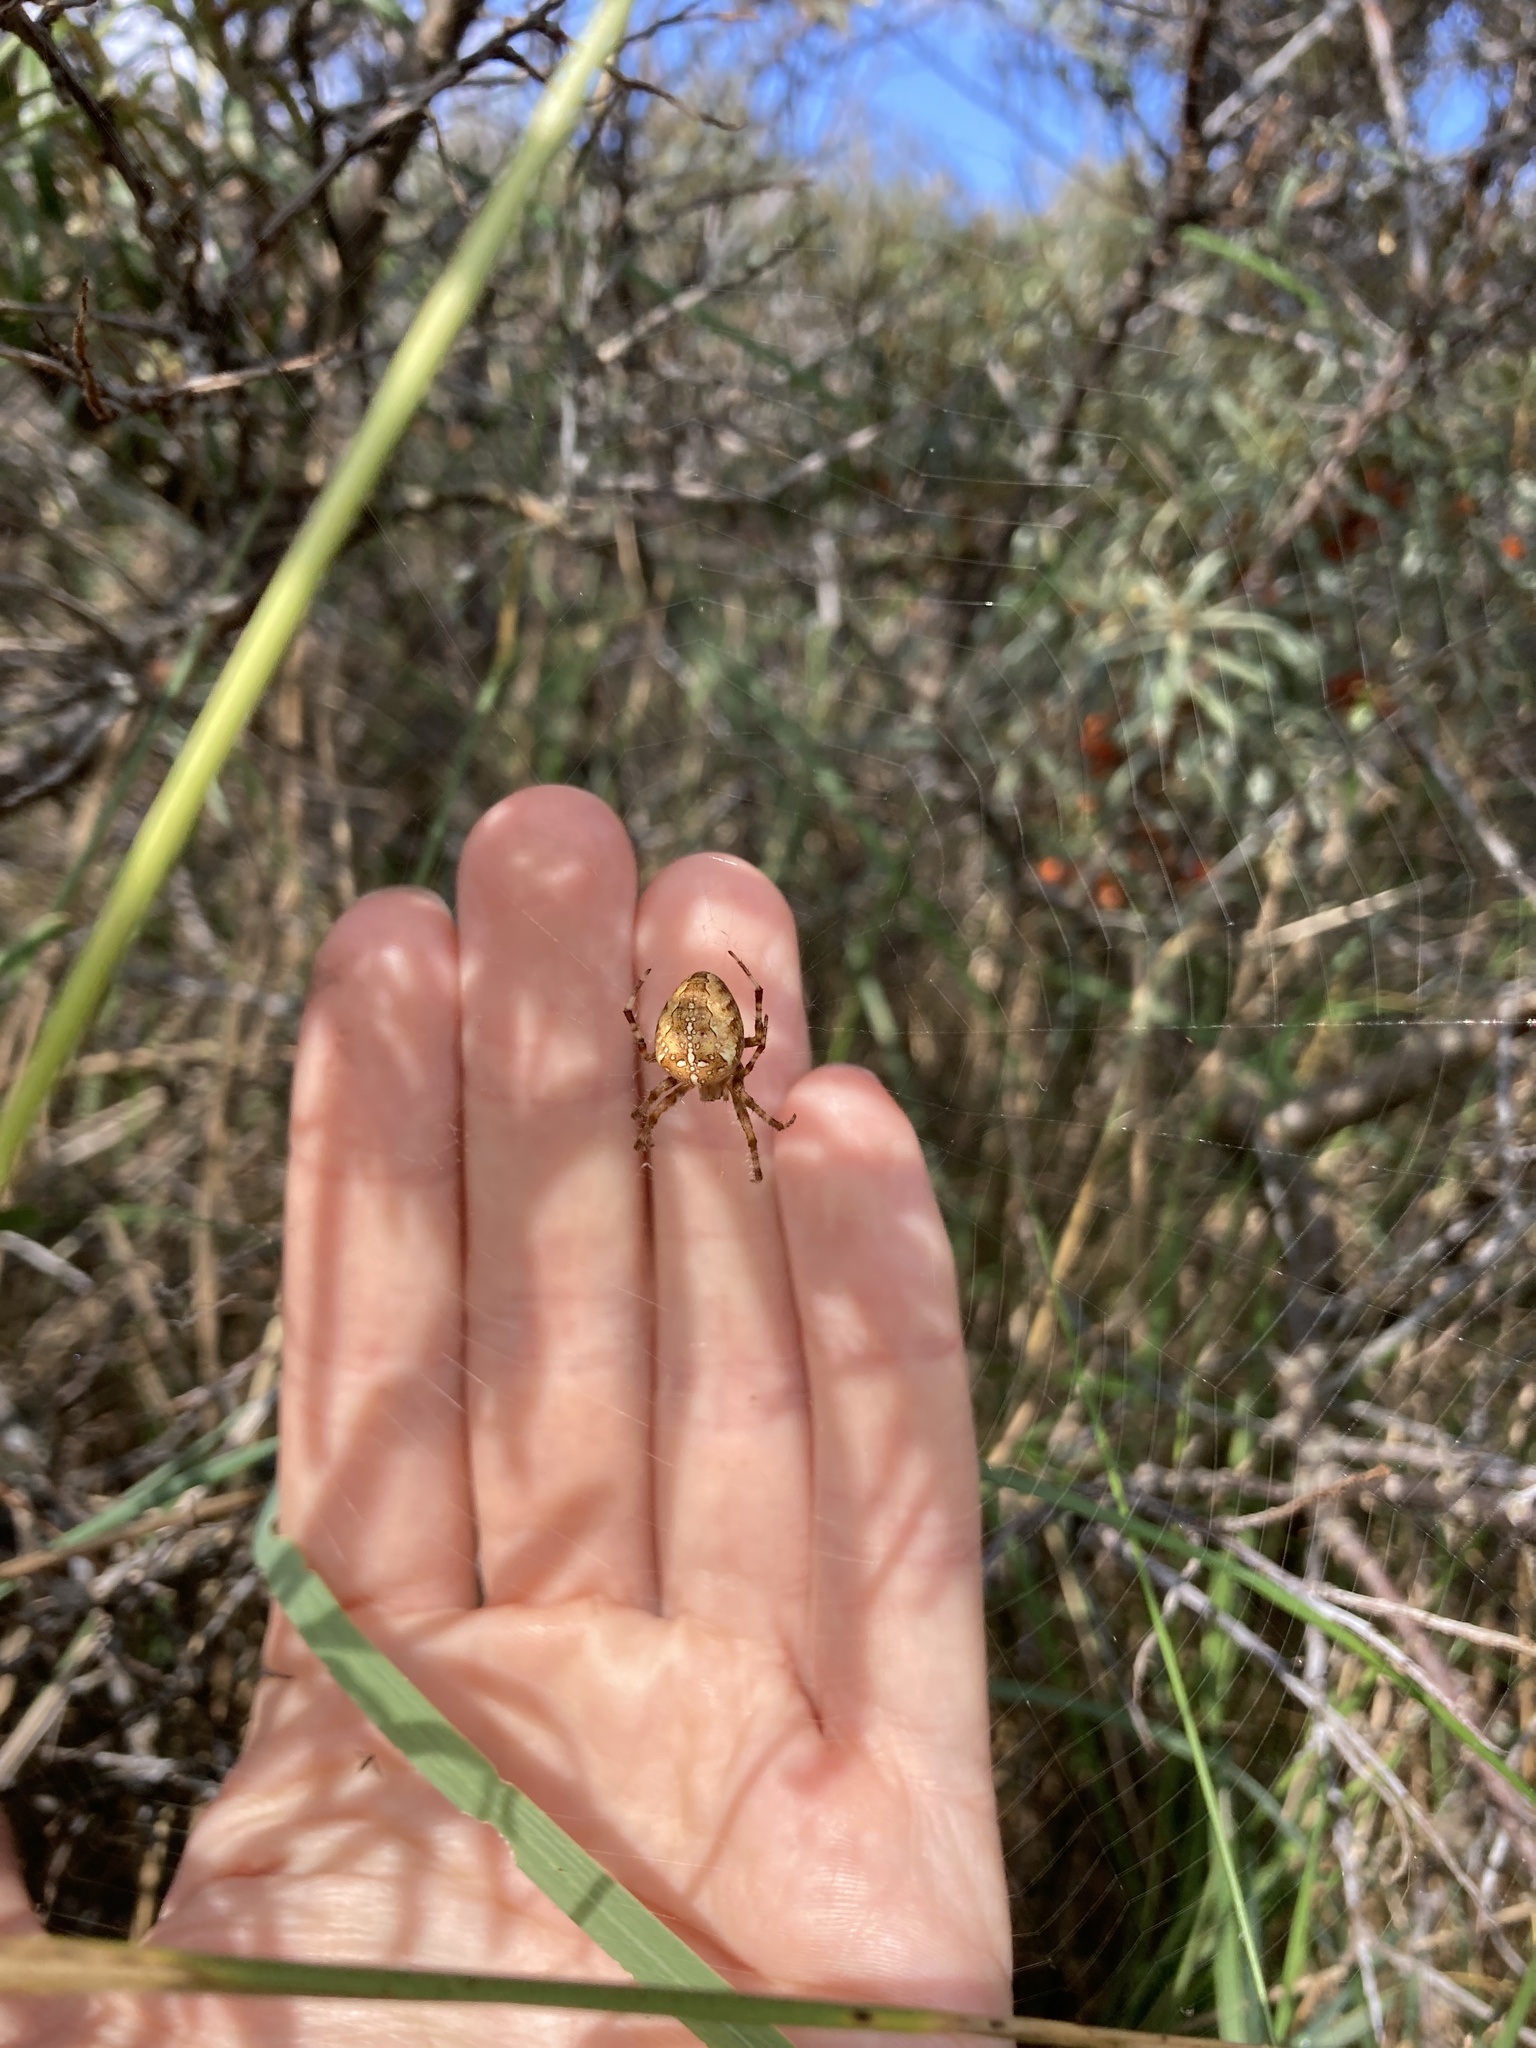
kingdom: Animalia
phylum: Arthropoda
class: Arachnida
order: Araneae
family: Araneidae
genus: Araneus
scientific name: Araneus diadematus
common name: Cross orbweaver
